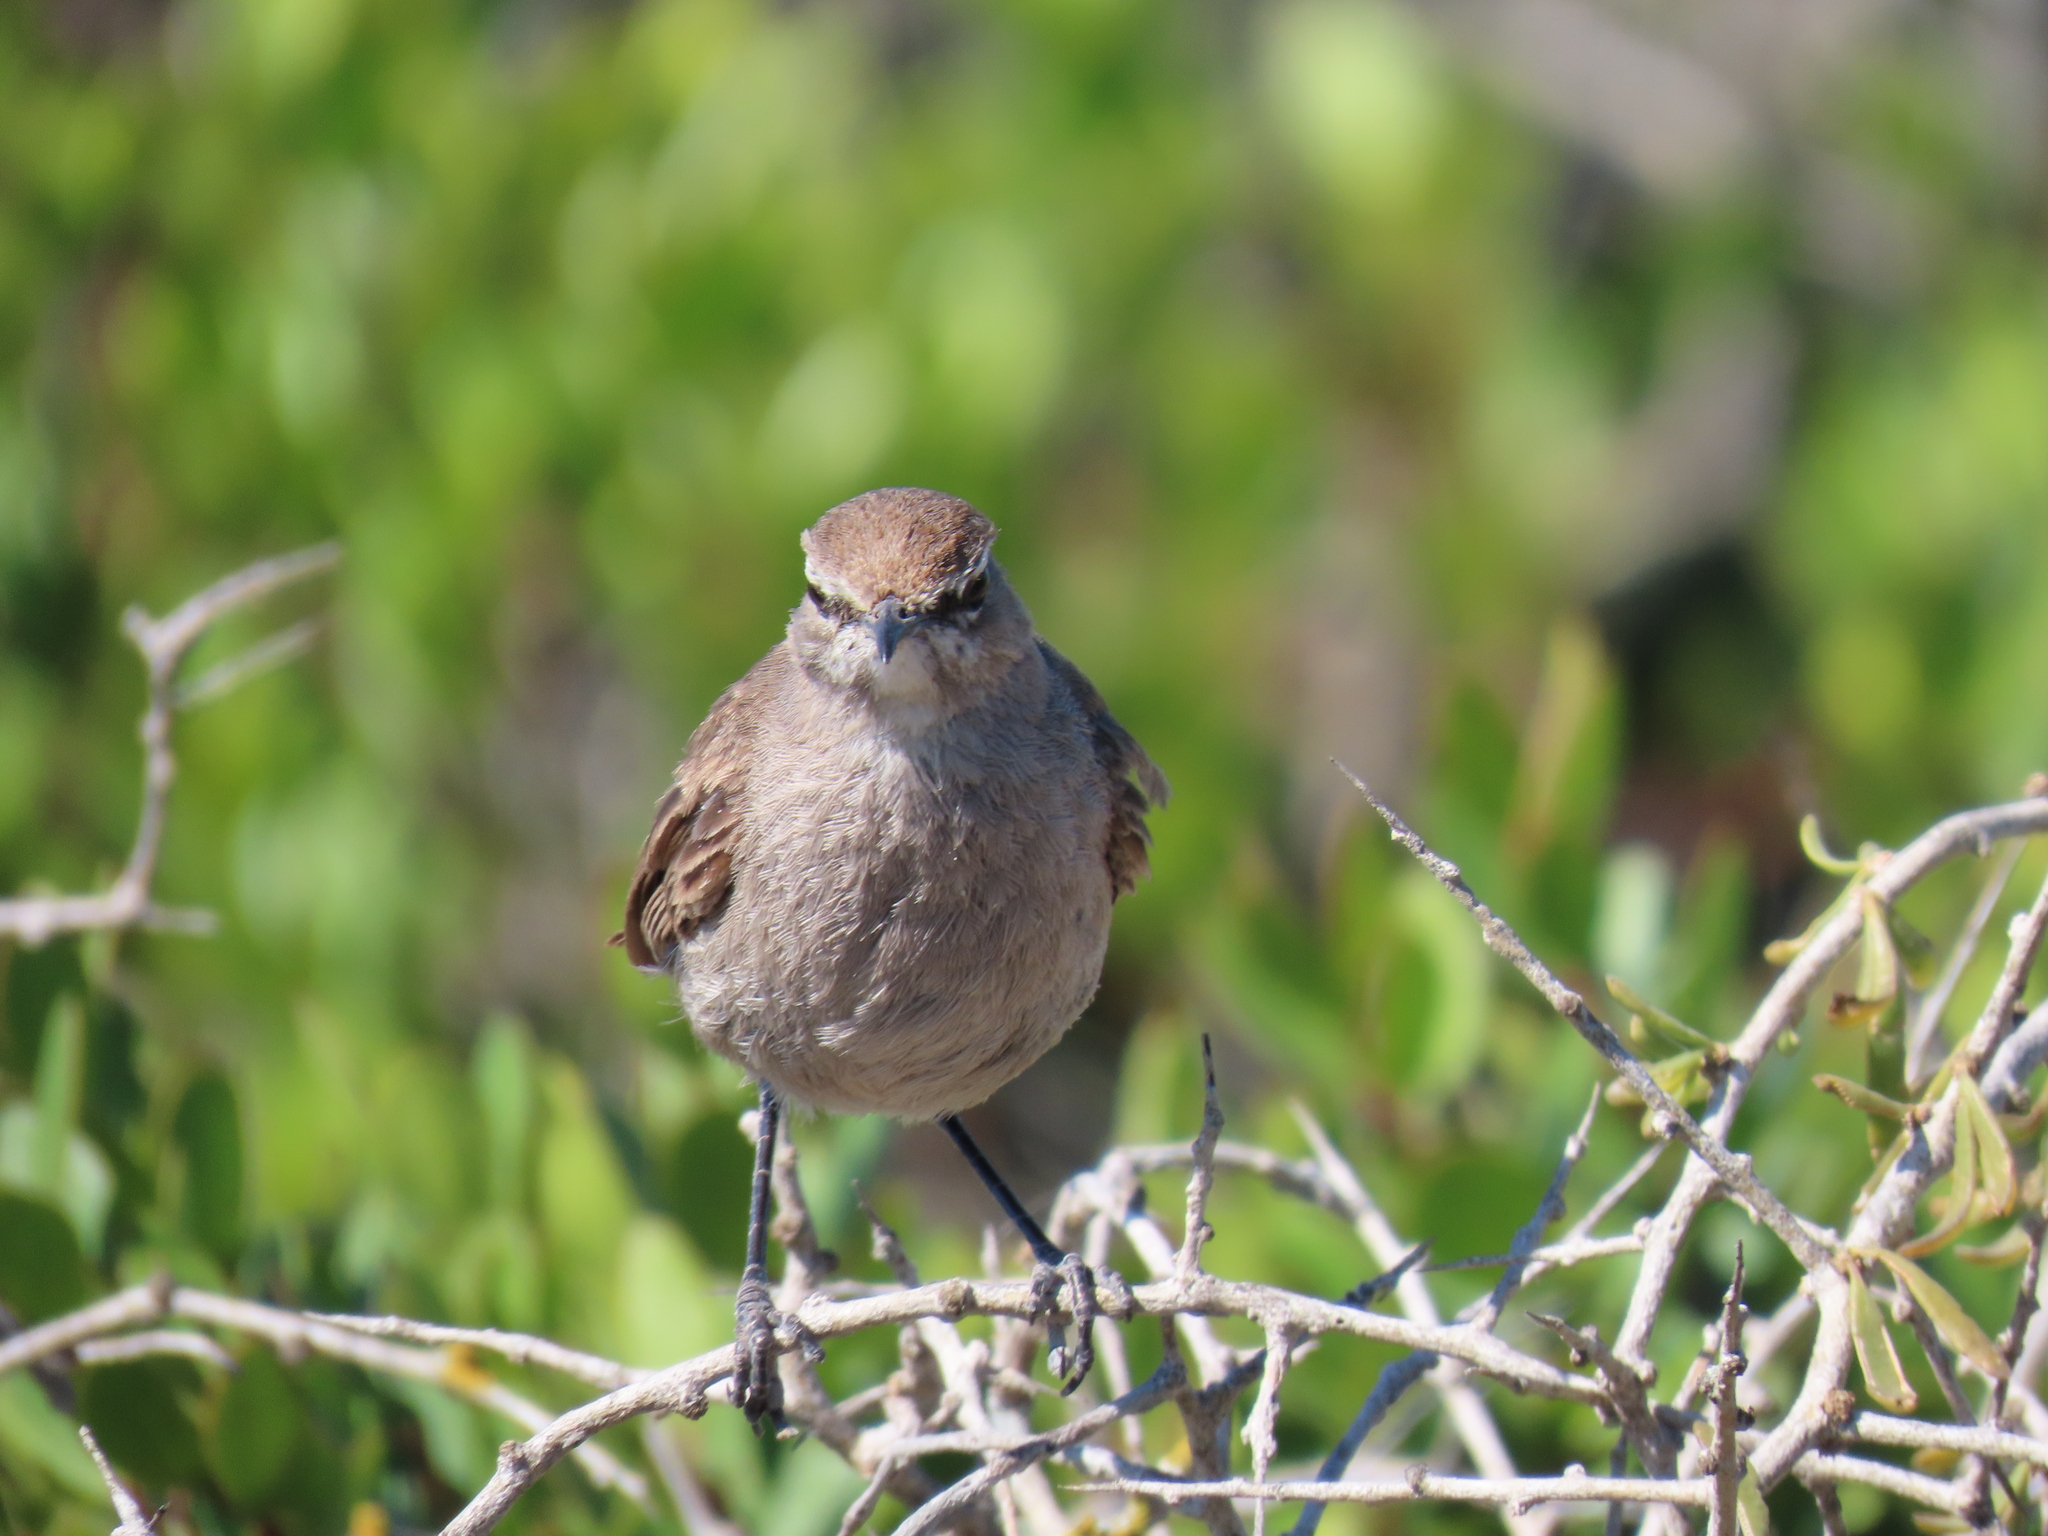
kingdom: Animalia
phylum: Chordata
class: Aves
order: Passeriformes
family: Muscicapidae
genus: Erythropygia
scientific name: Erythropygia coryphoeus
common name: Karoo scrub robin
